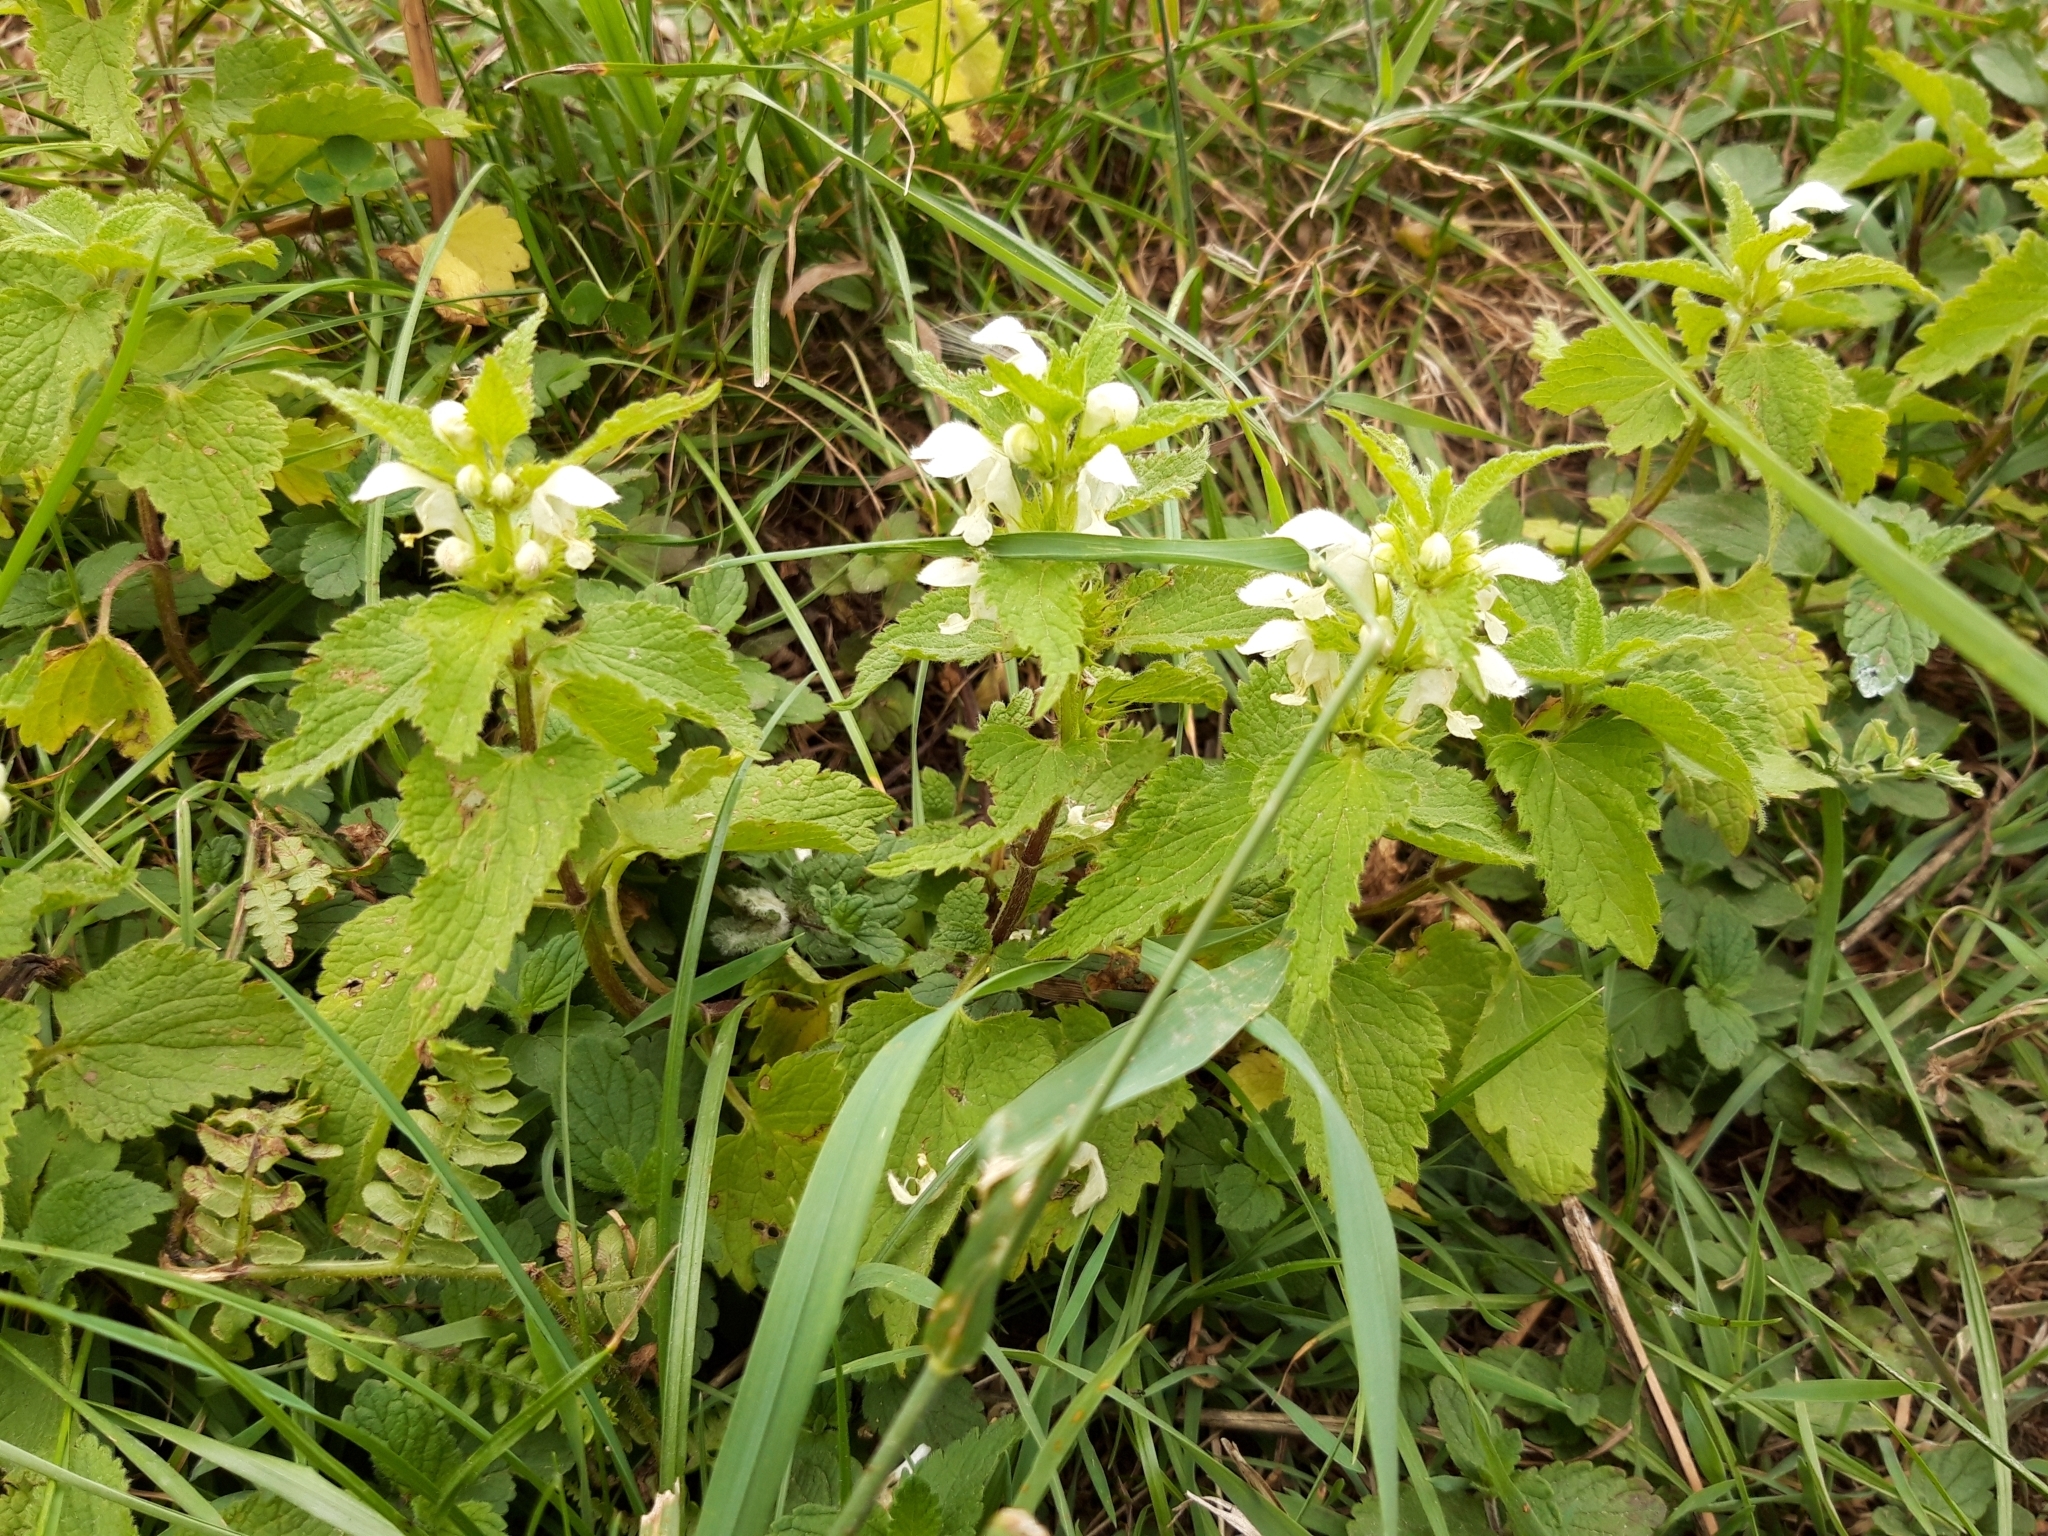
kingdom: Plantae
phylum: Tracheophyta
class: Magnoliopsida
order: Lamiales
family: Lamiaceae
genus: Lamium
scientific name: Lamium album
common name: White dead-nettle
